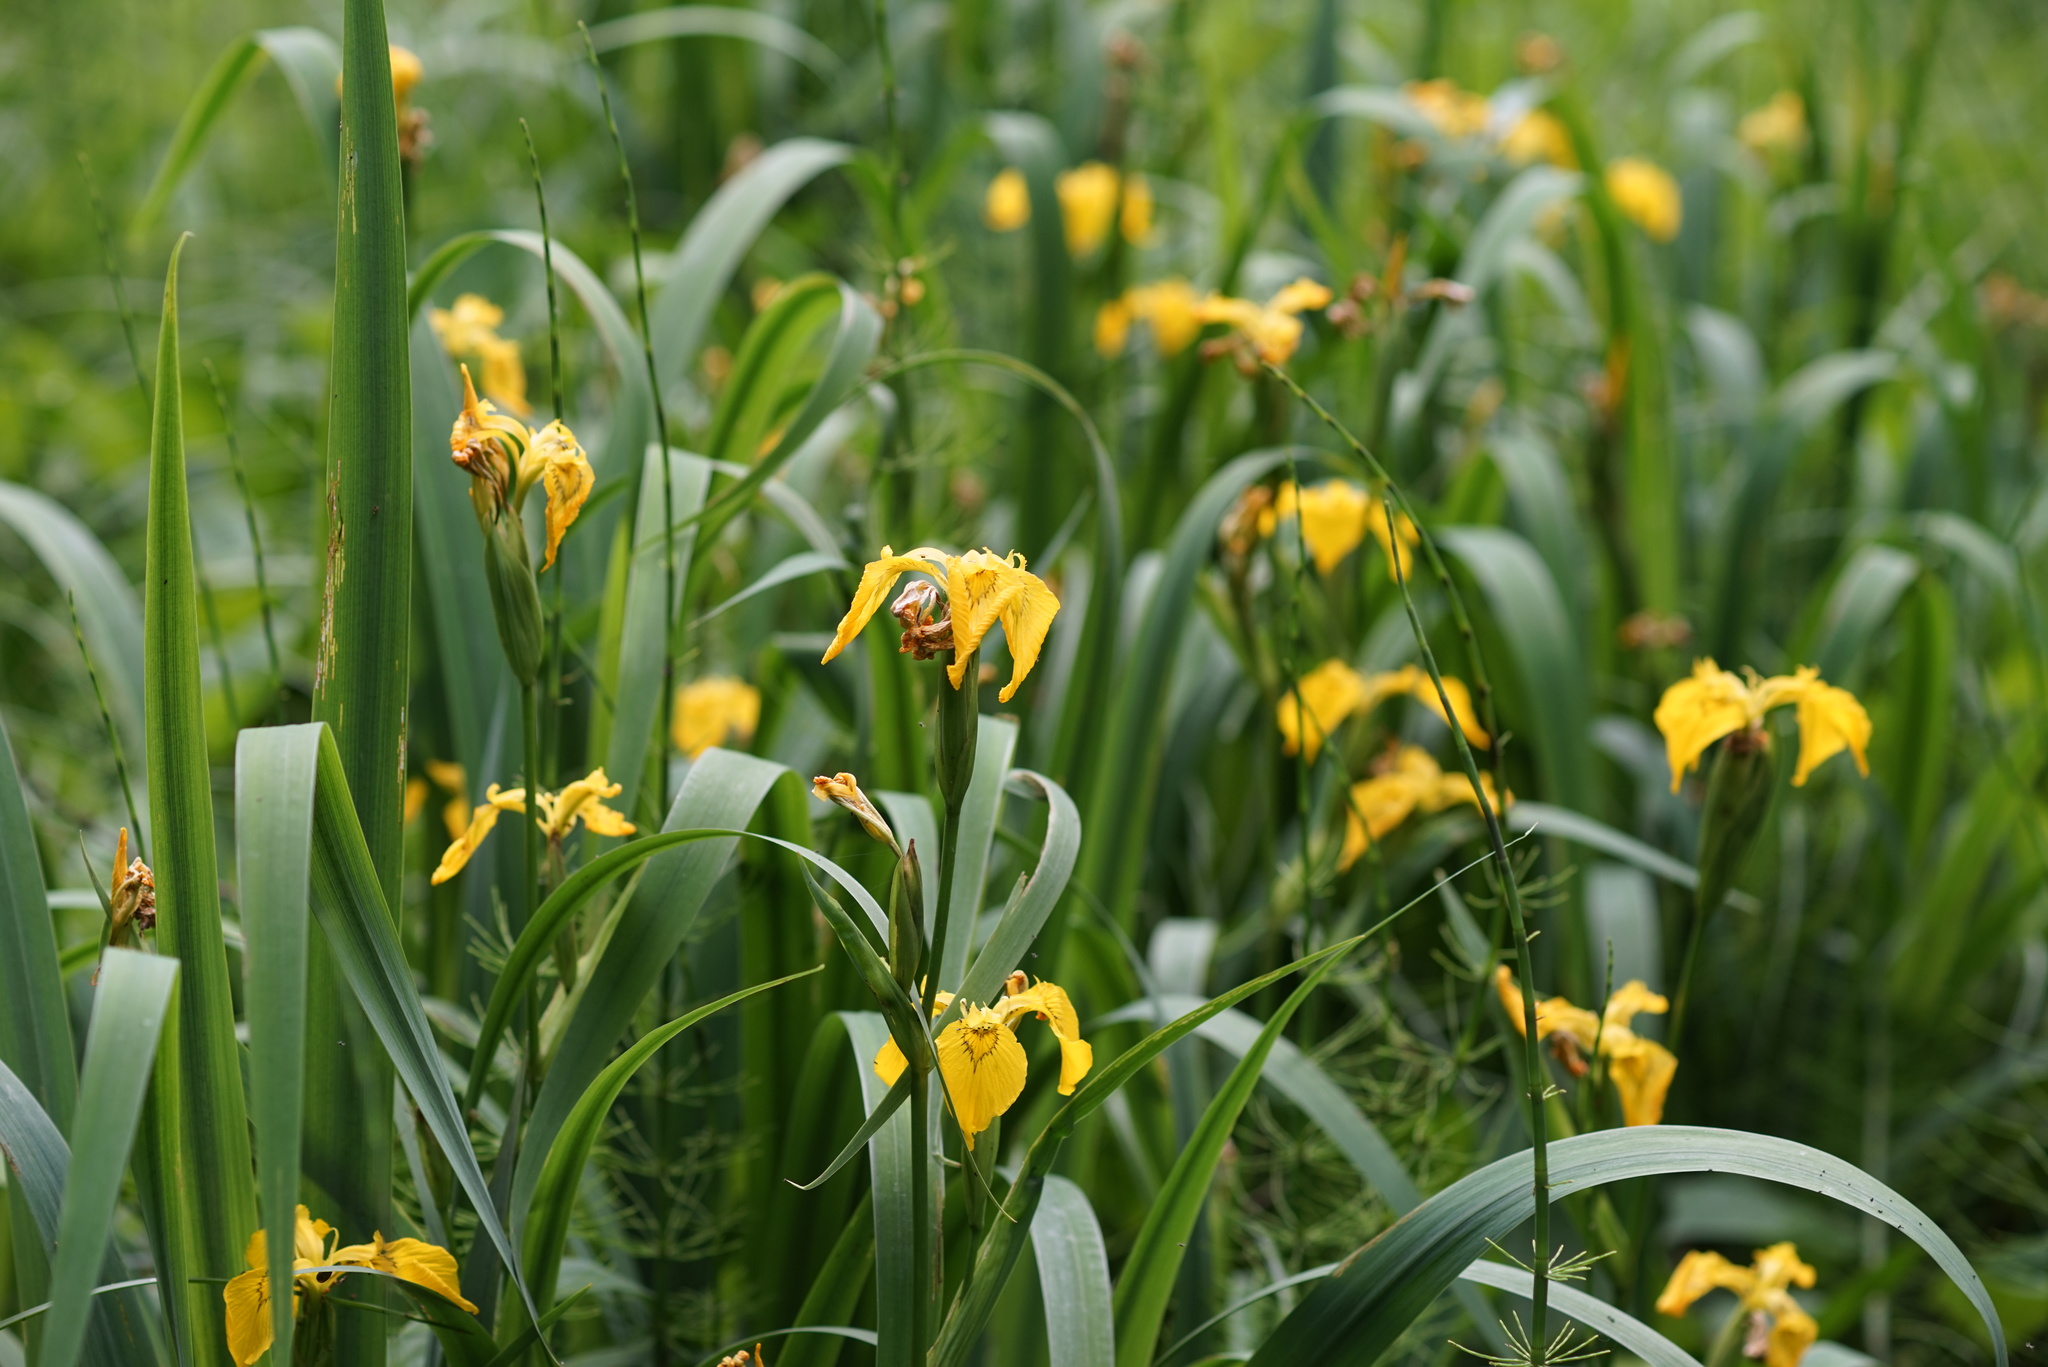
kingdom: Plantae
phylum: Tracheophyta
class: Liliopsida
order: Asparagales
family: Iridaceae
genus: Iris
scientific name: Iris pseudacorus
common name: Yellow flag
